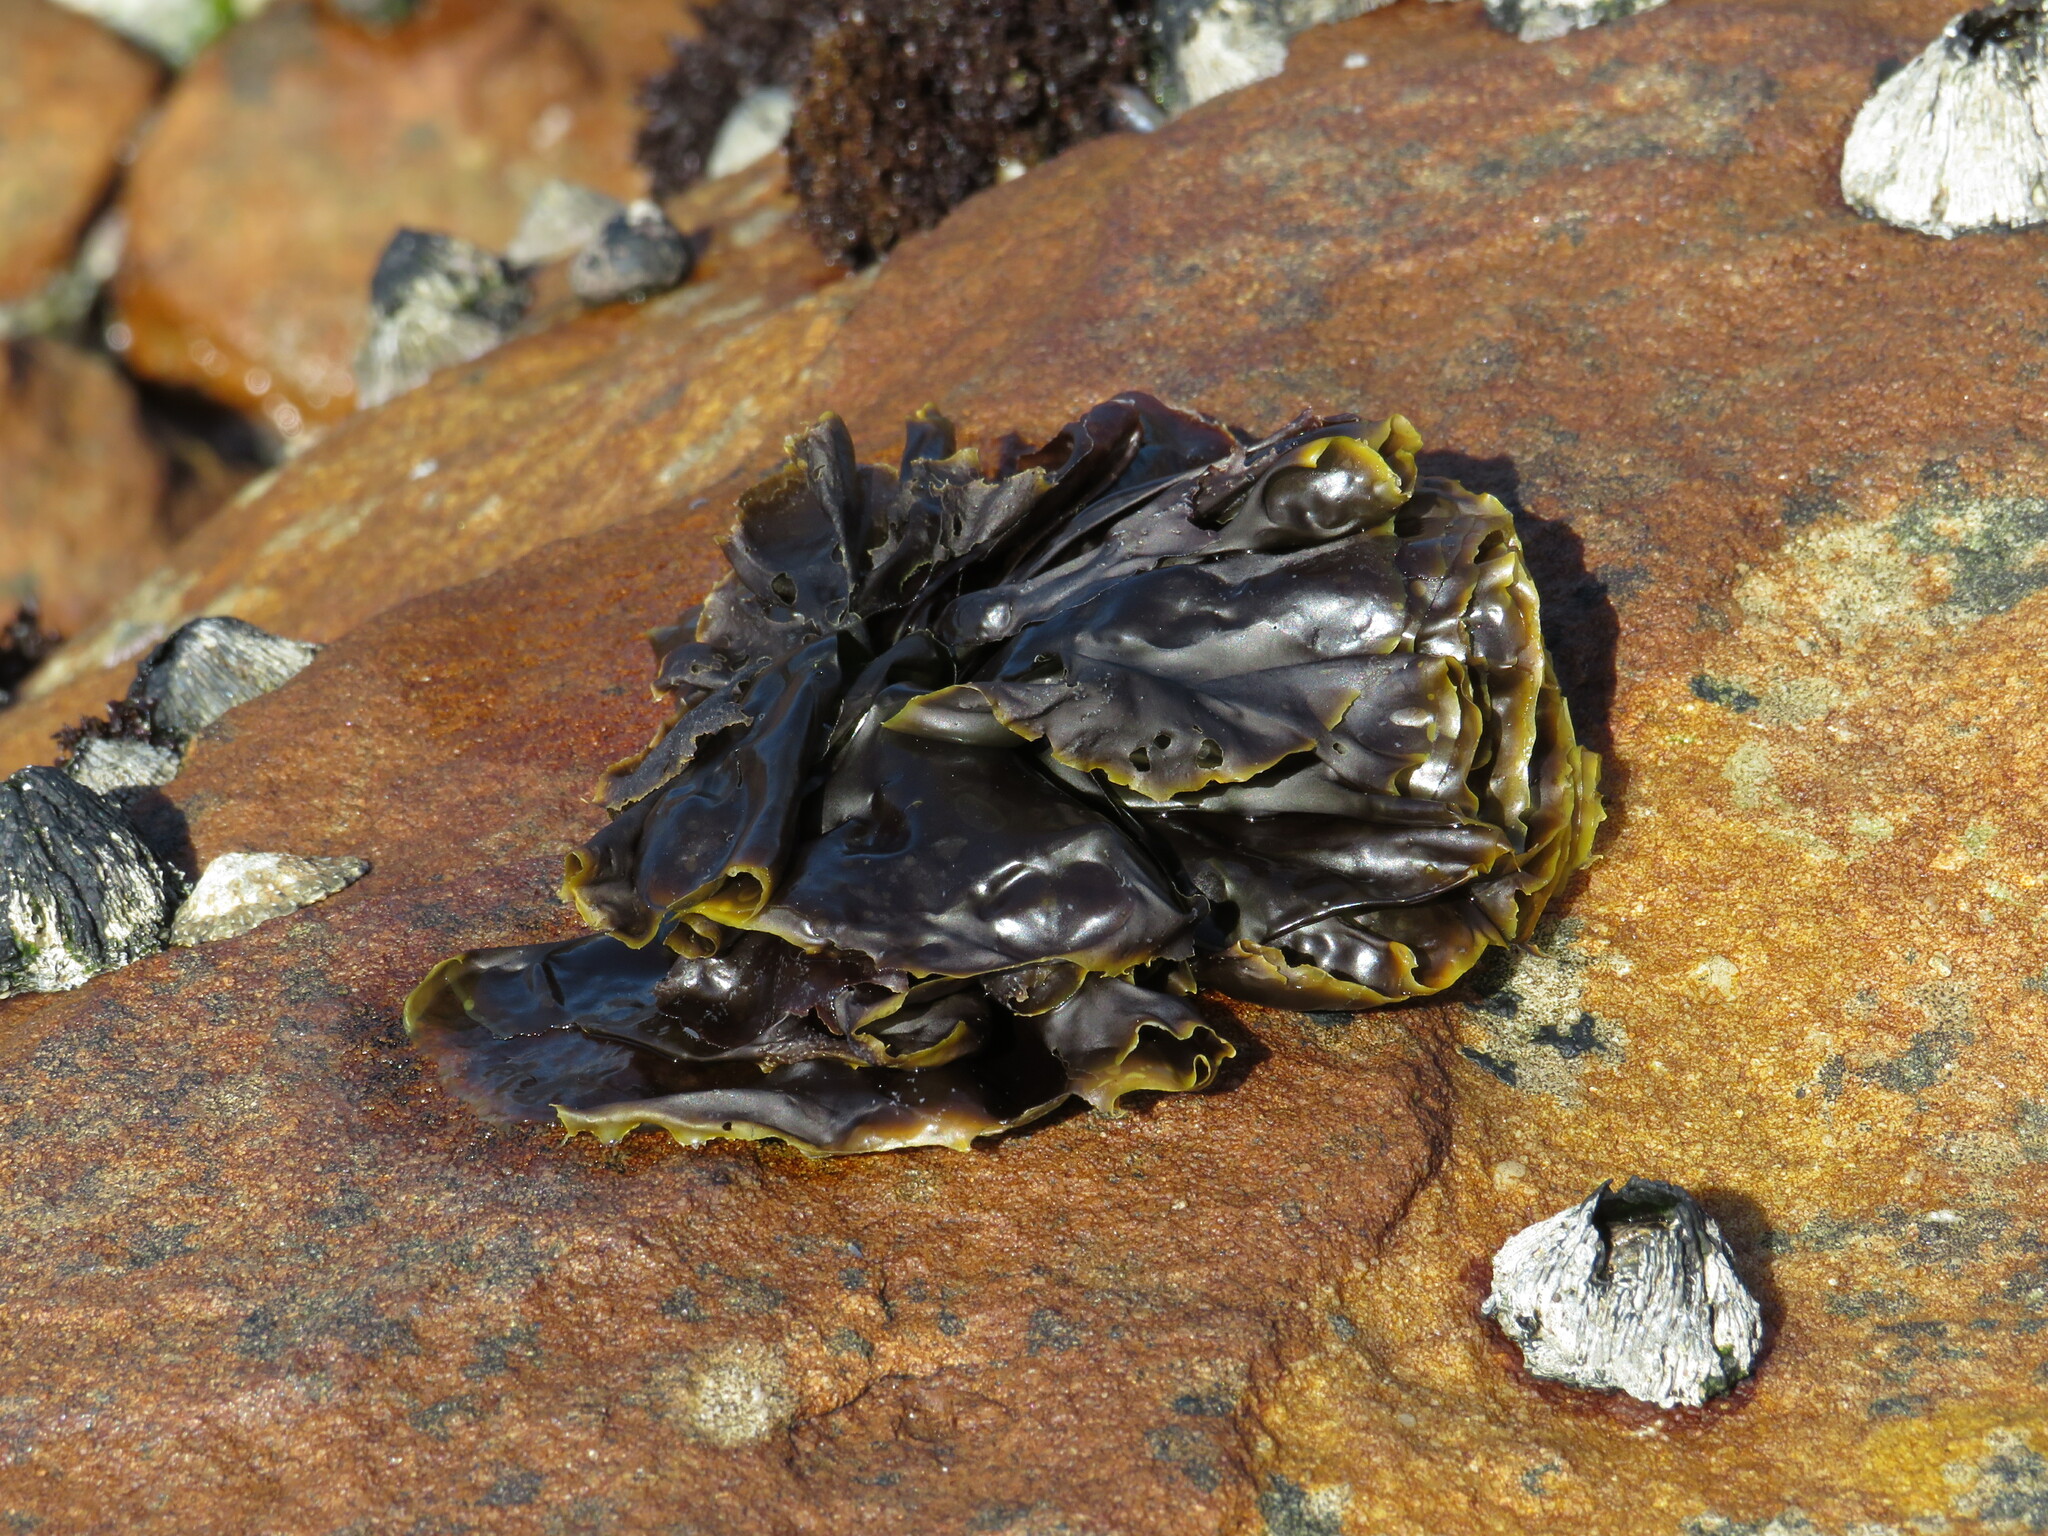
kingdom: Plantae
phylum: Rhodophyta
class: Bangiophyceae
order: Bangiales
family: Bangiaceae
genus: Porphyra
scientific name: Porphyra capensis
